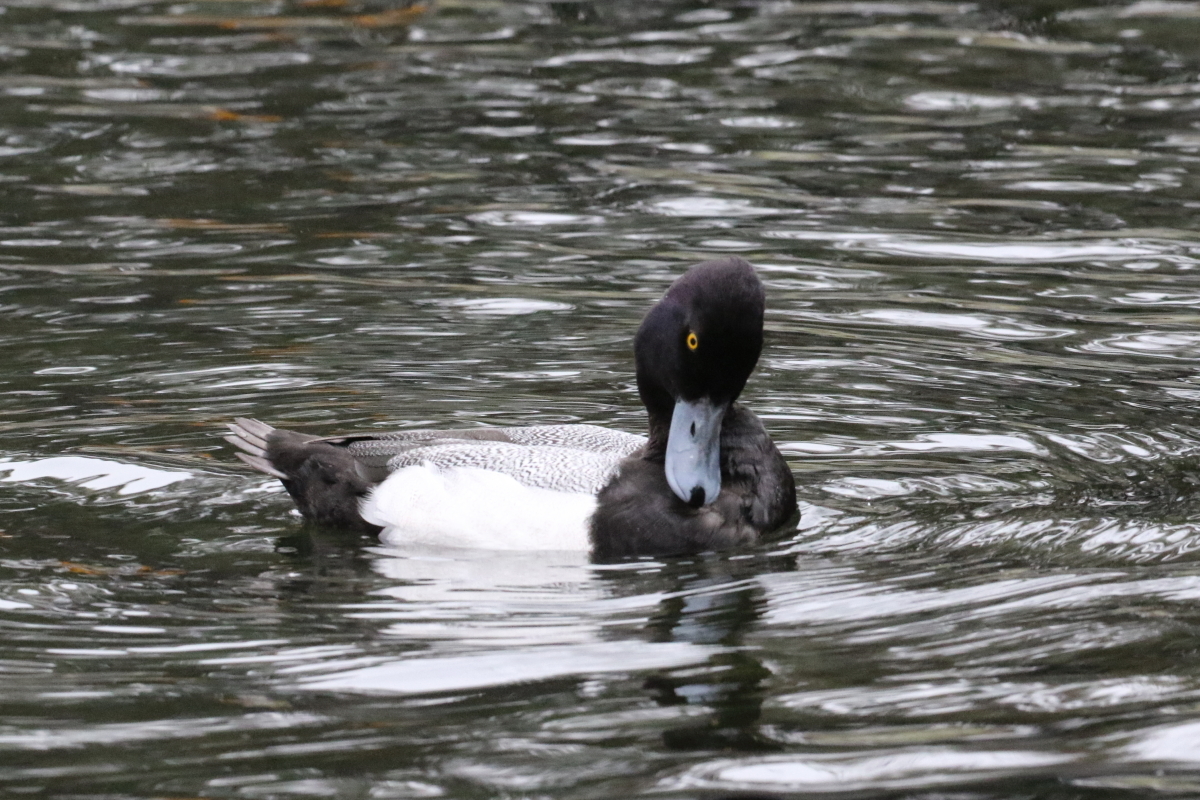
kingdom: Animalia
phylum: Chordata
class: Aves
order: Anseriformes
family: Anatidae
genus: Aythya
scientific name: Aythya affinis
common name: Lesser scaup
